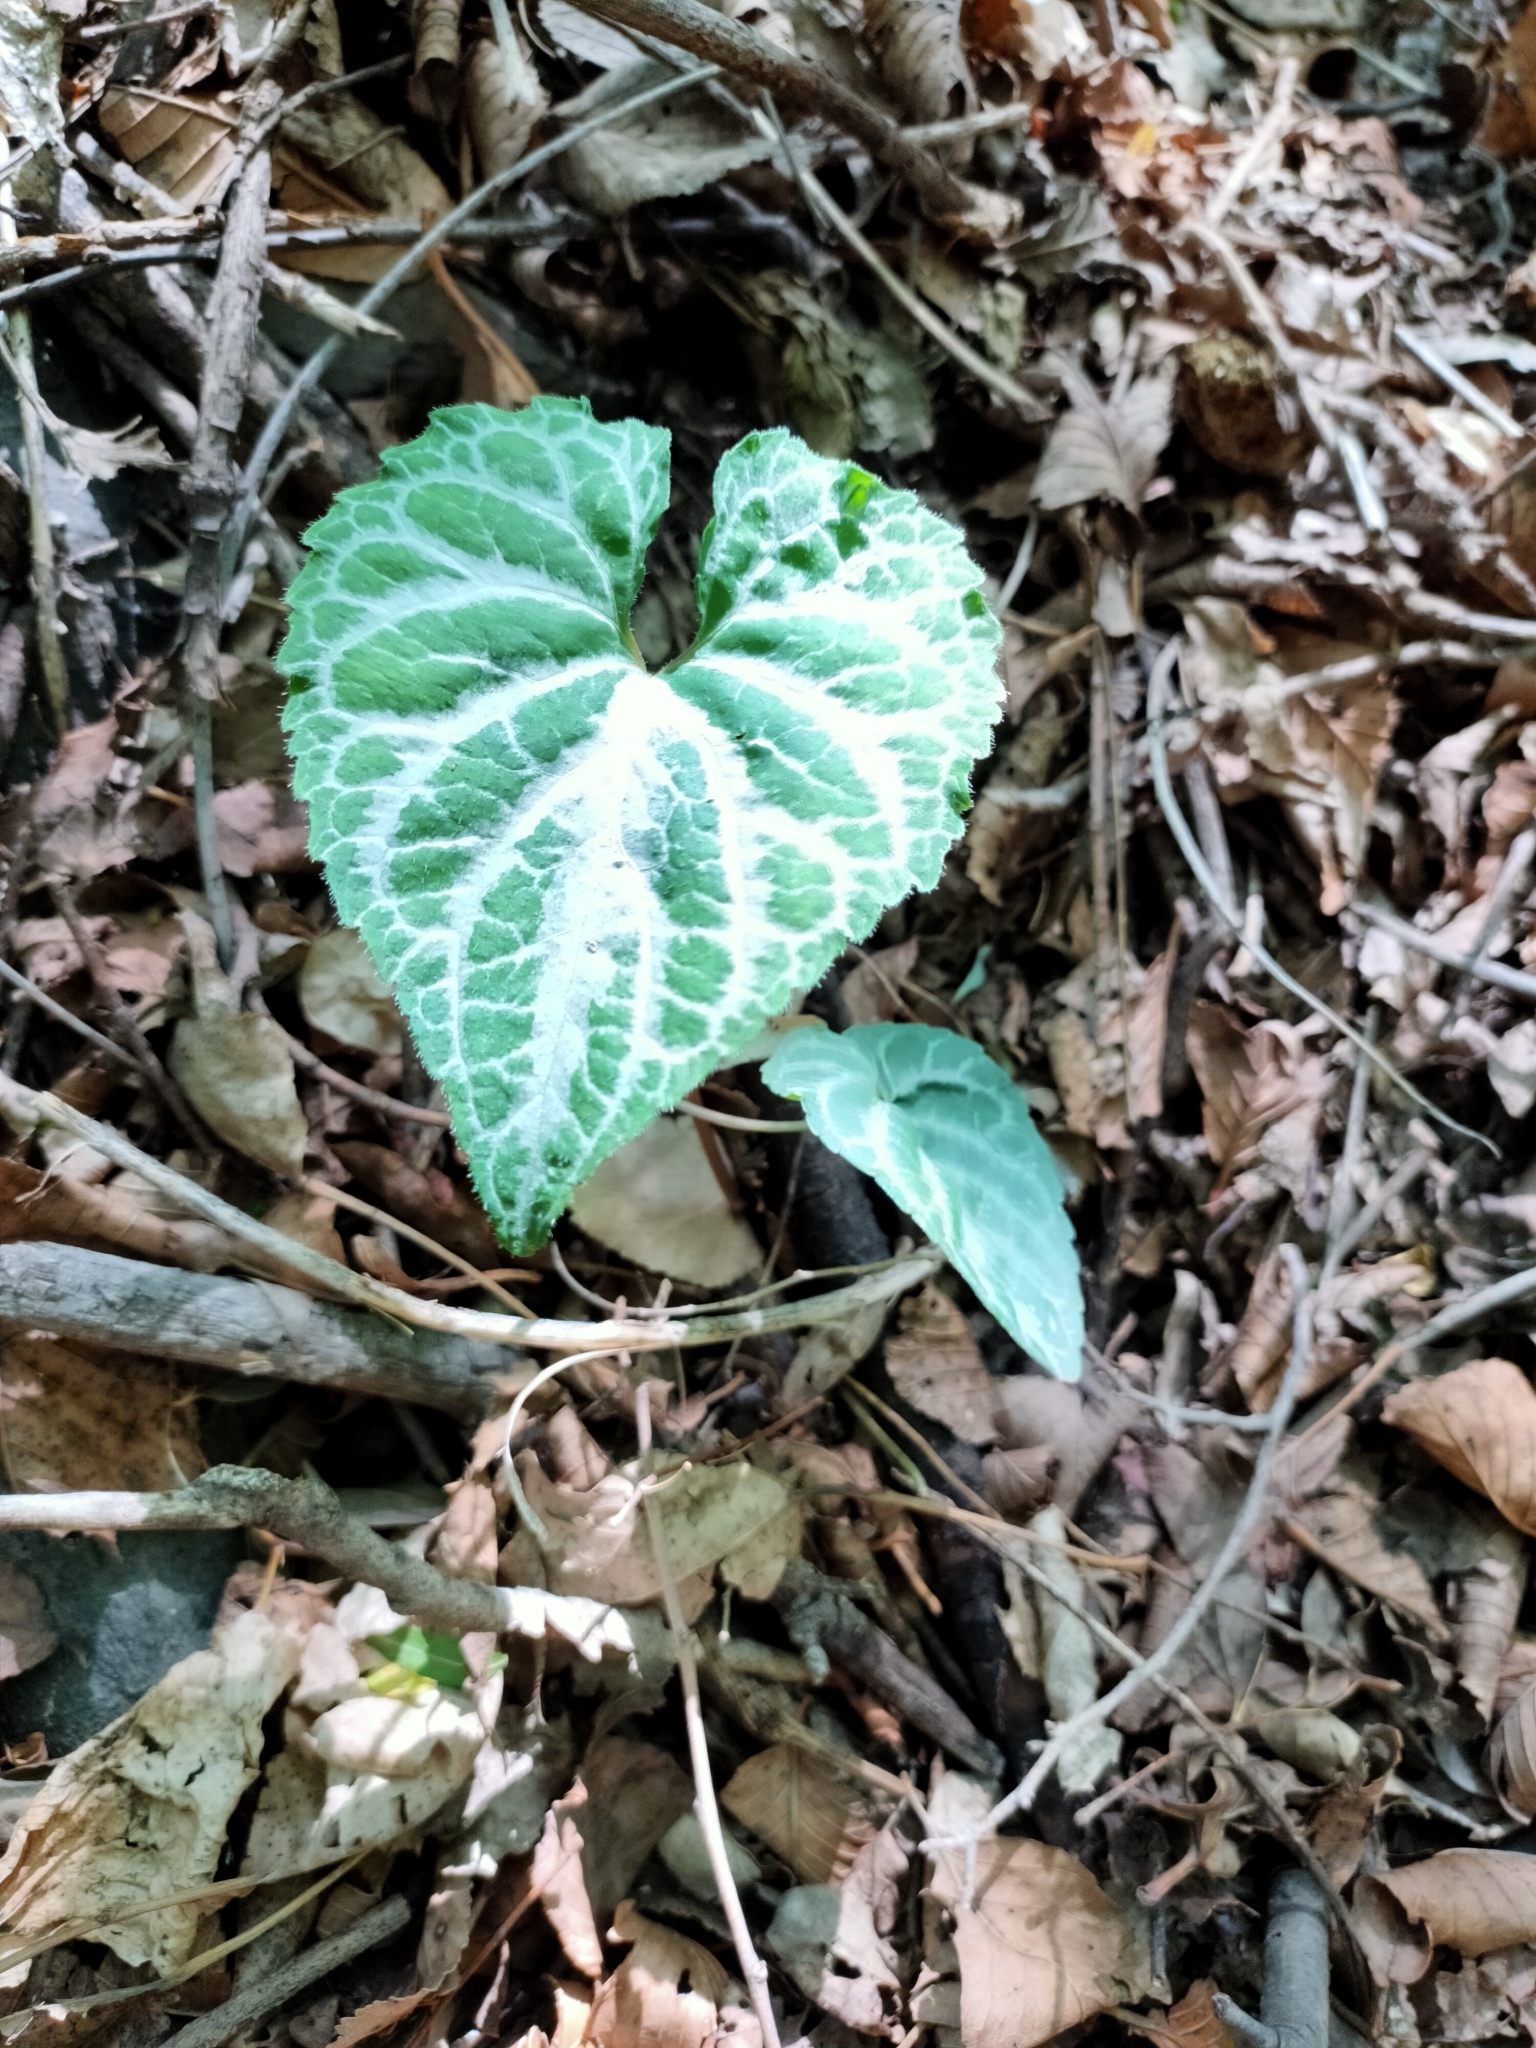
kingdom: Plantae
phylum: Tracheophyta
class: Magnoliopsida
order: Malpighiales
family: Violaceae
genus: Viola
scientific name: Viola hancockii
